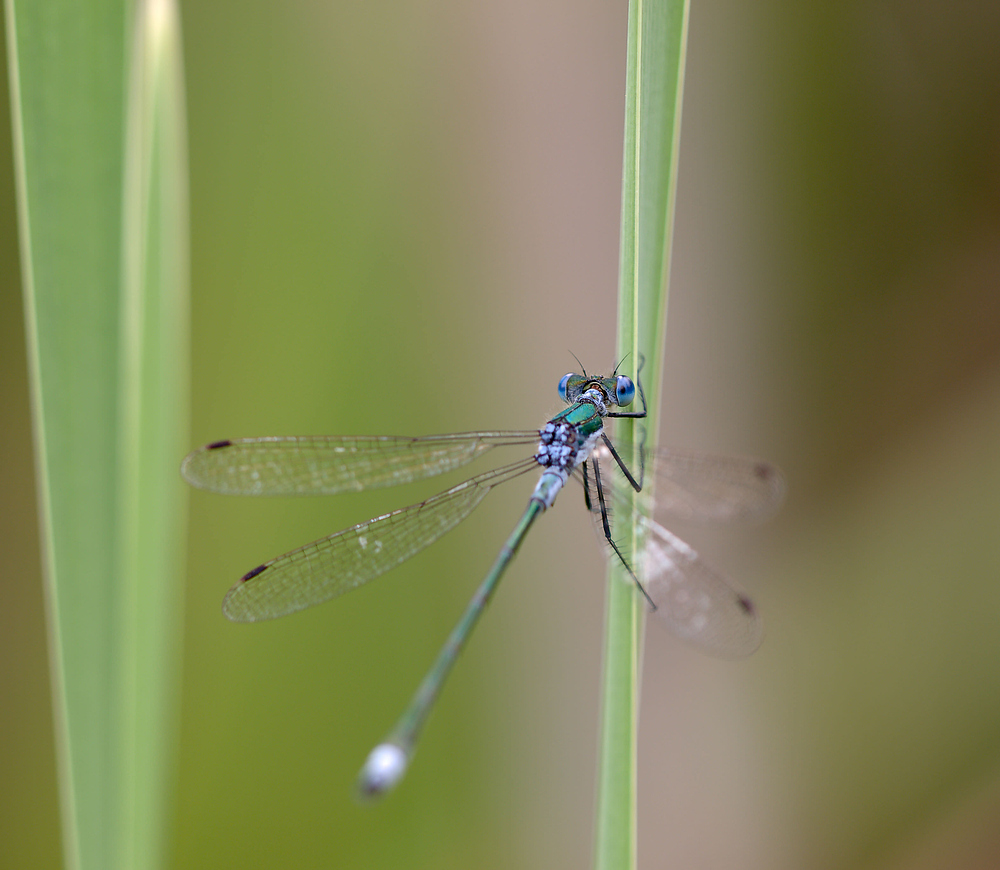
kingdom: Animalia
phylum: Arthropoda
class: Insecta
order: Odonata
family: Lestidae
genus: Lestes
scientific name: Lestes sponsa
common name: Common spreadwing
